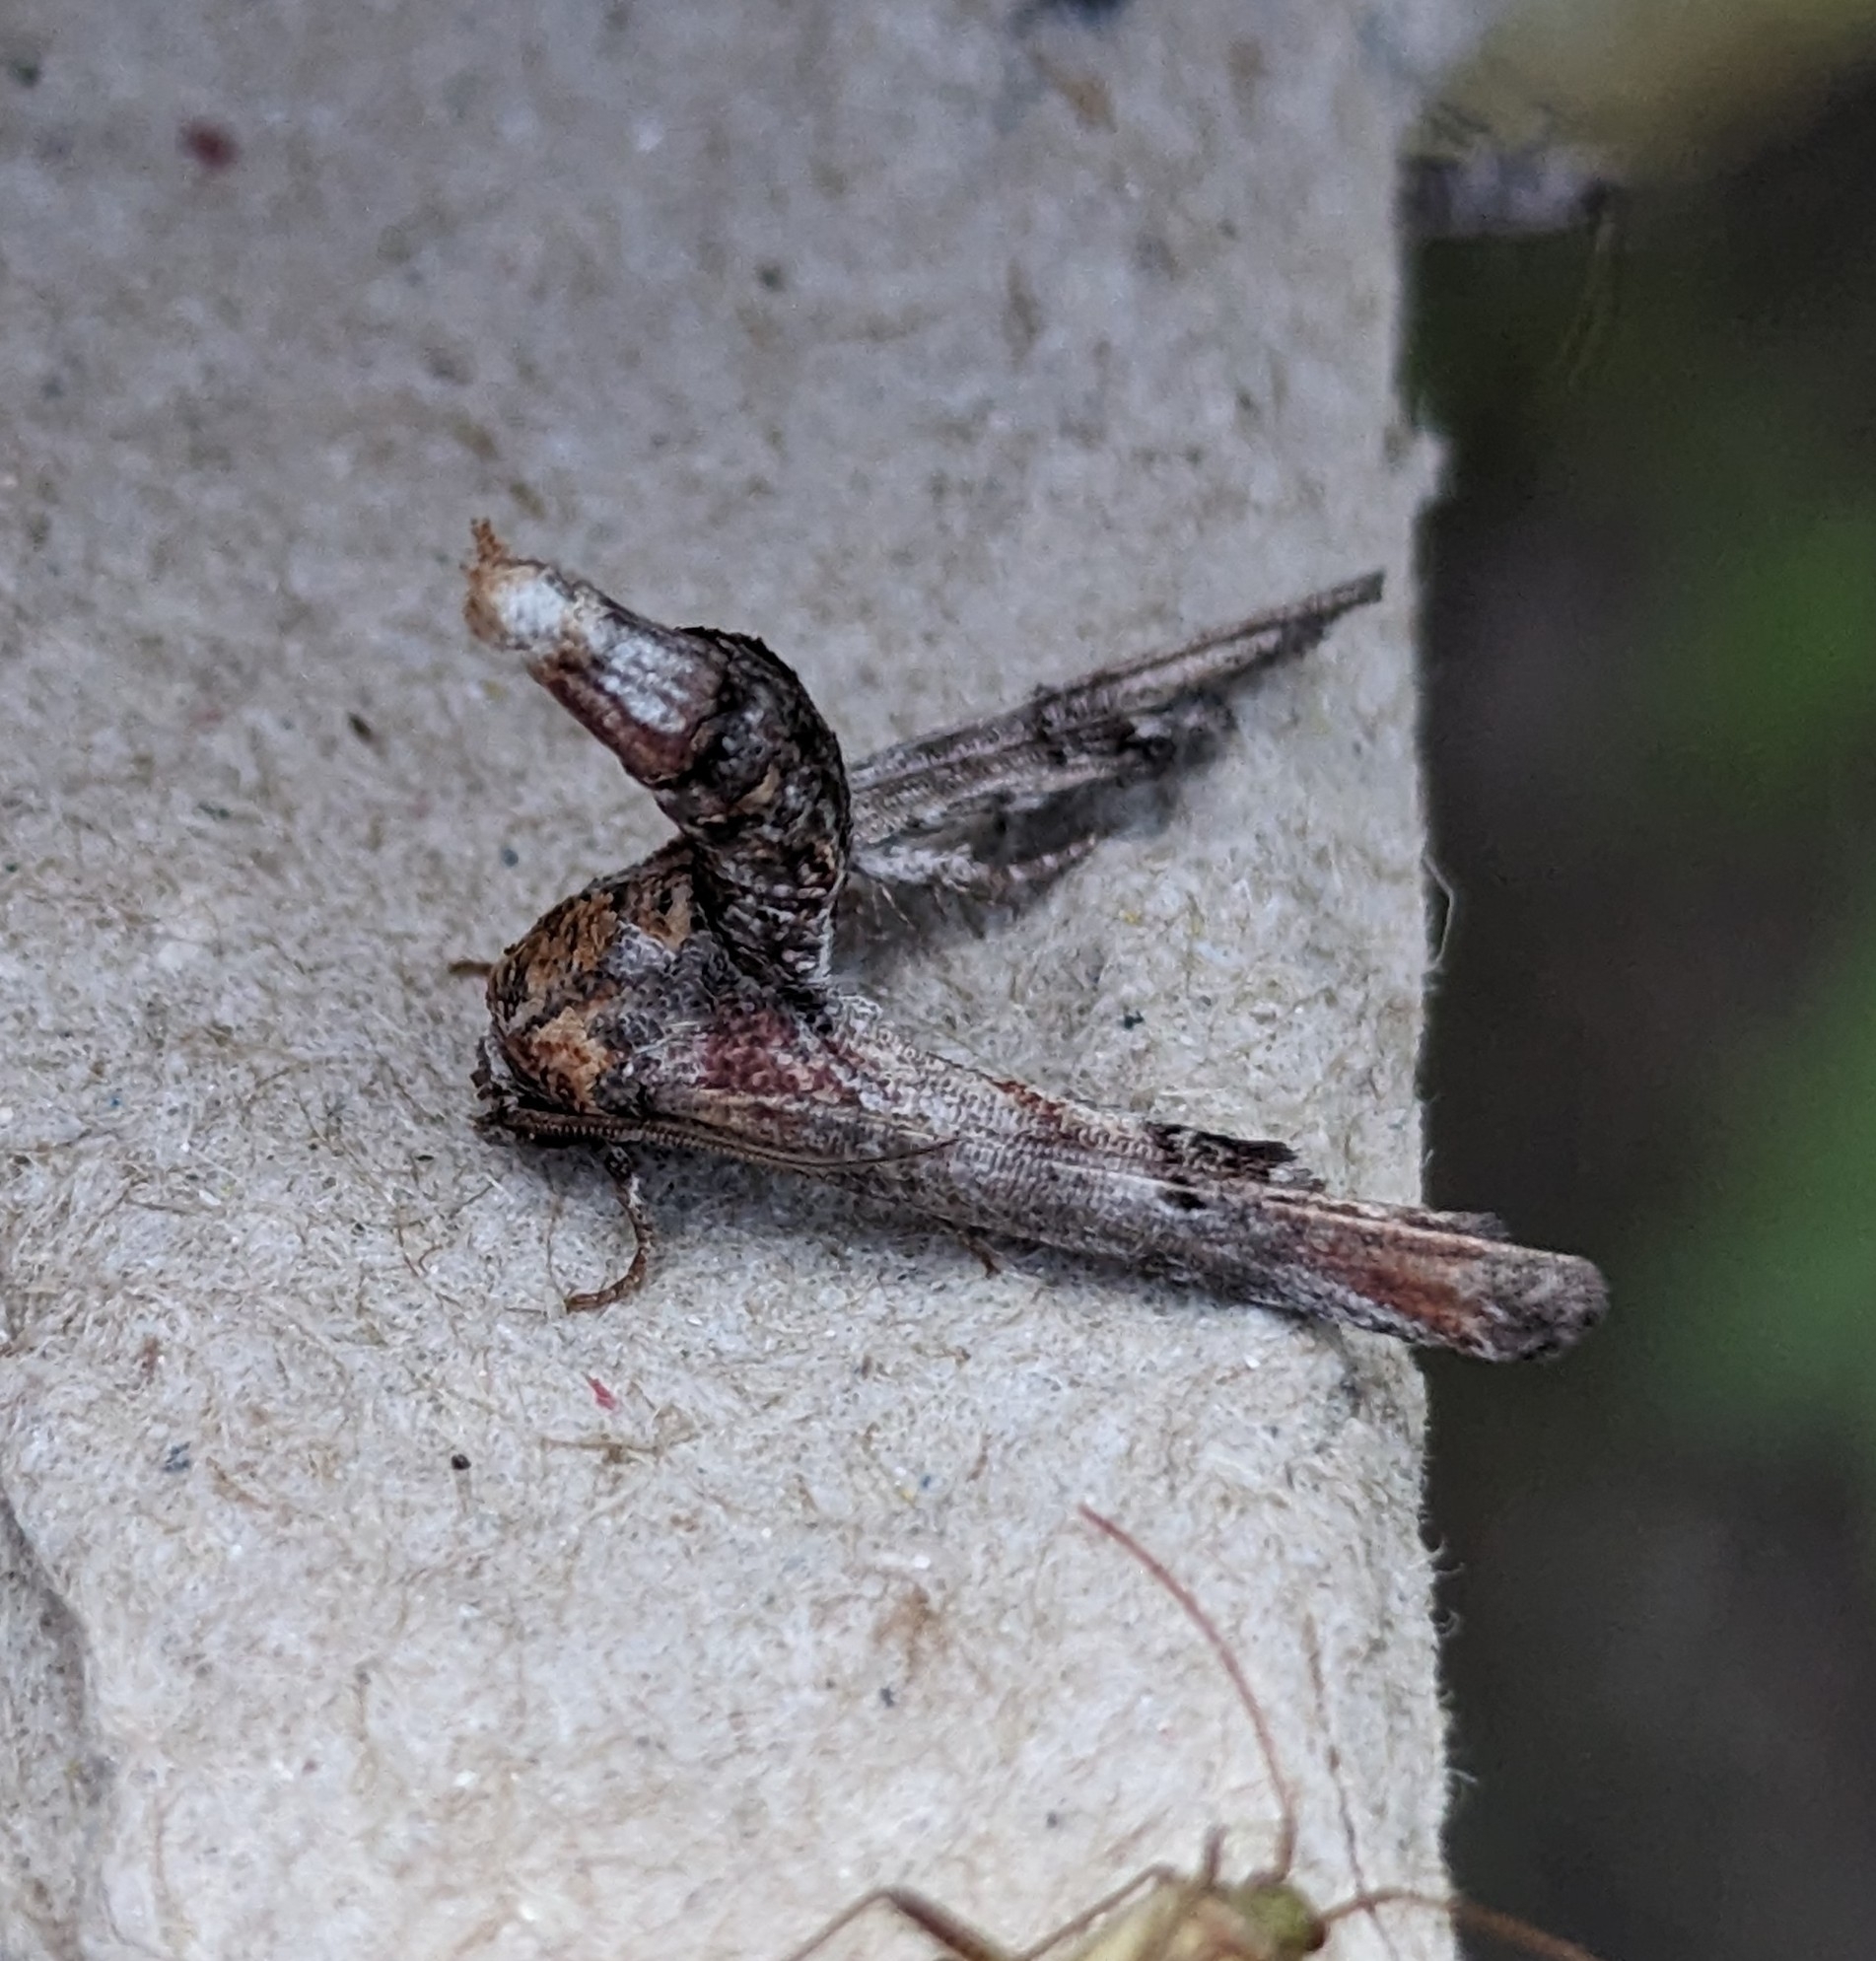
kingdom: Animalia
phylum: Arthropoda
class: Insecta
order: Lepidoptera
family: Euteliidae
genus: Marathyssa
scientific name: Marathyssa inficita
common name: Dark marathyssa moth
